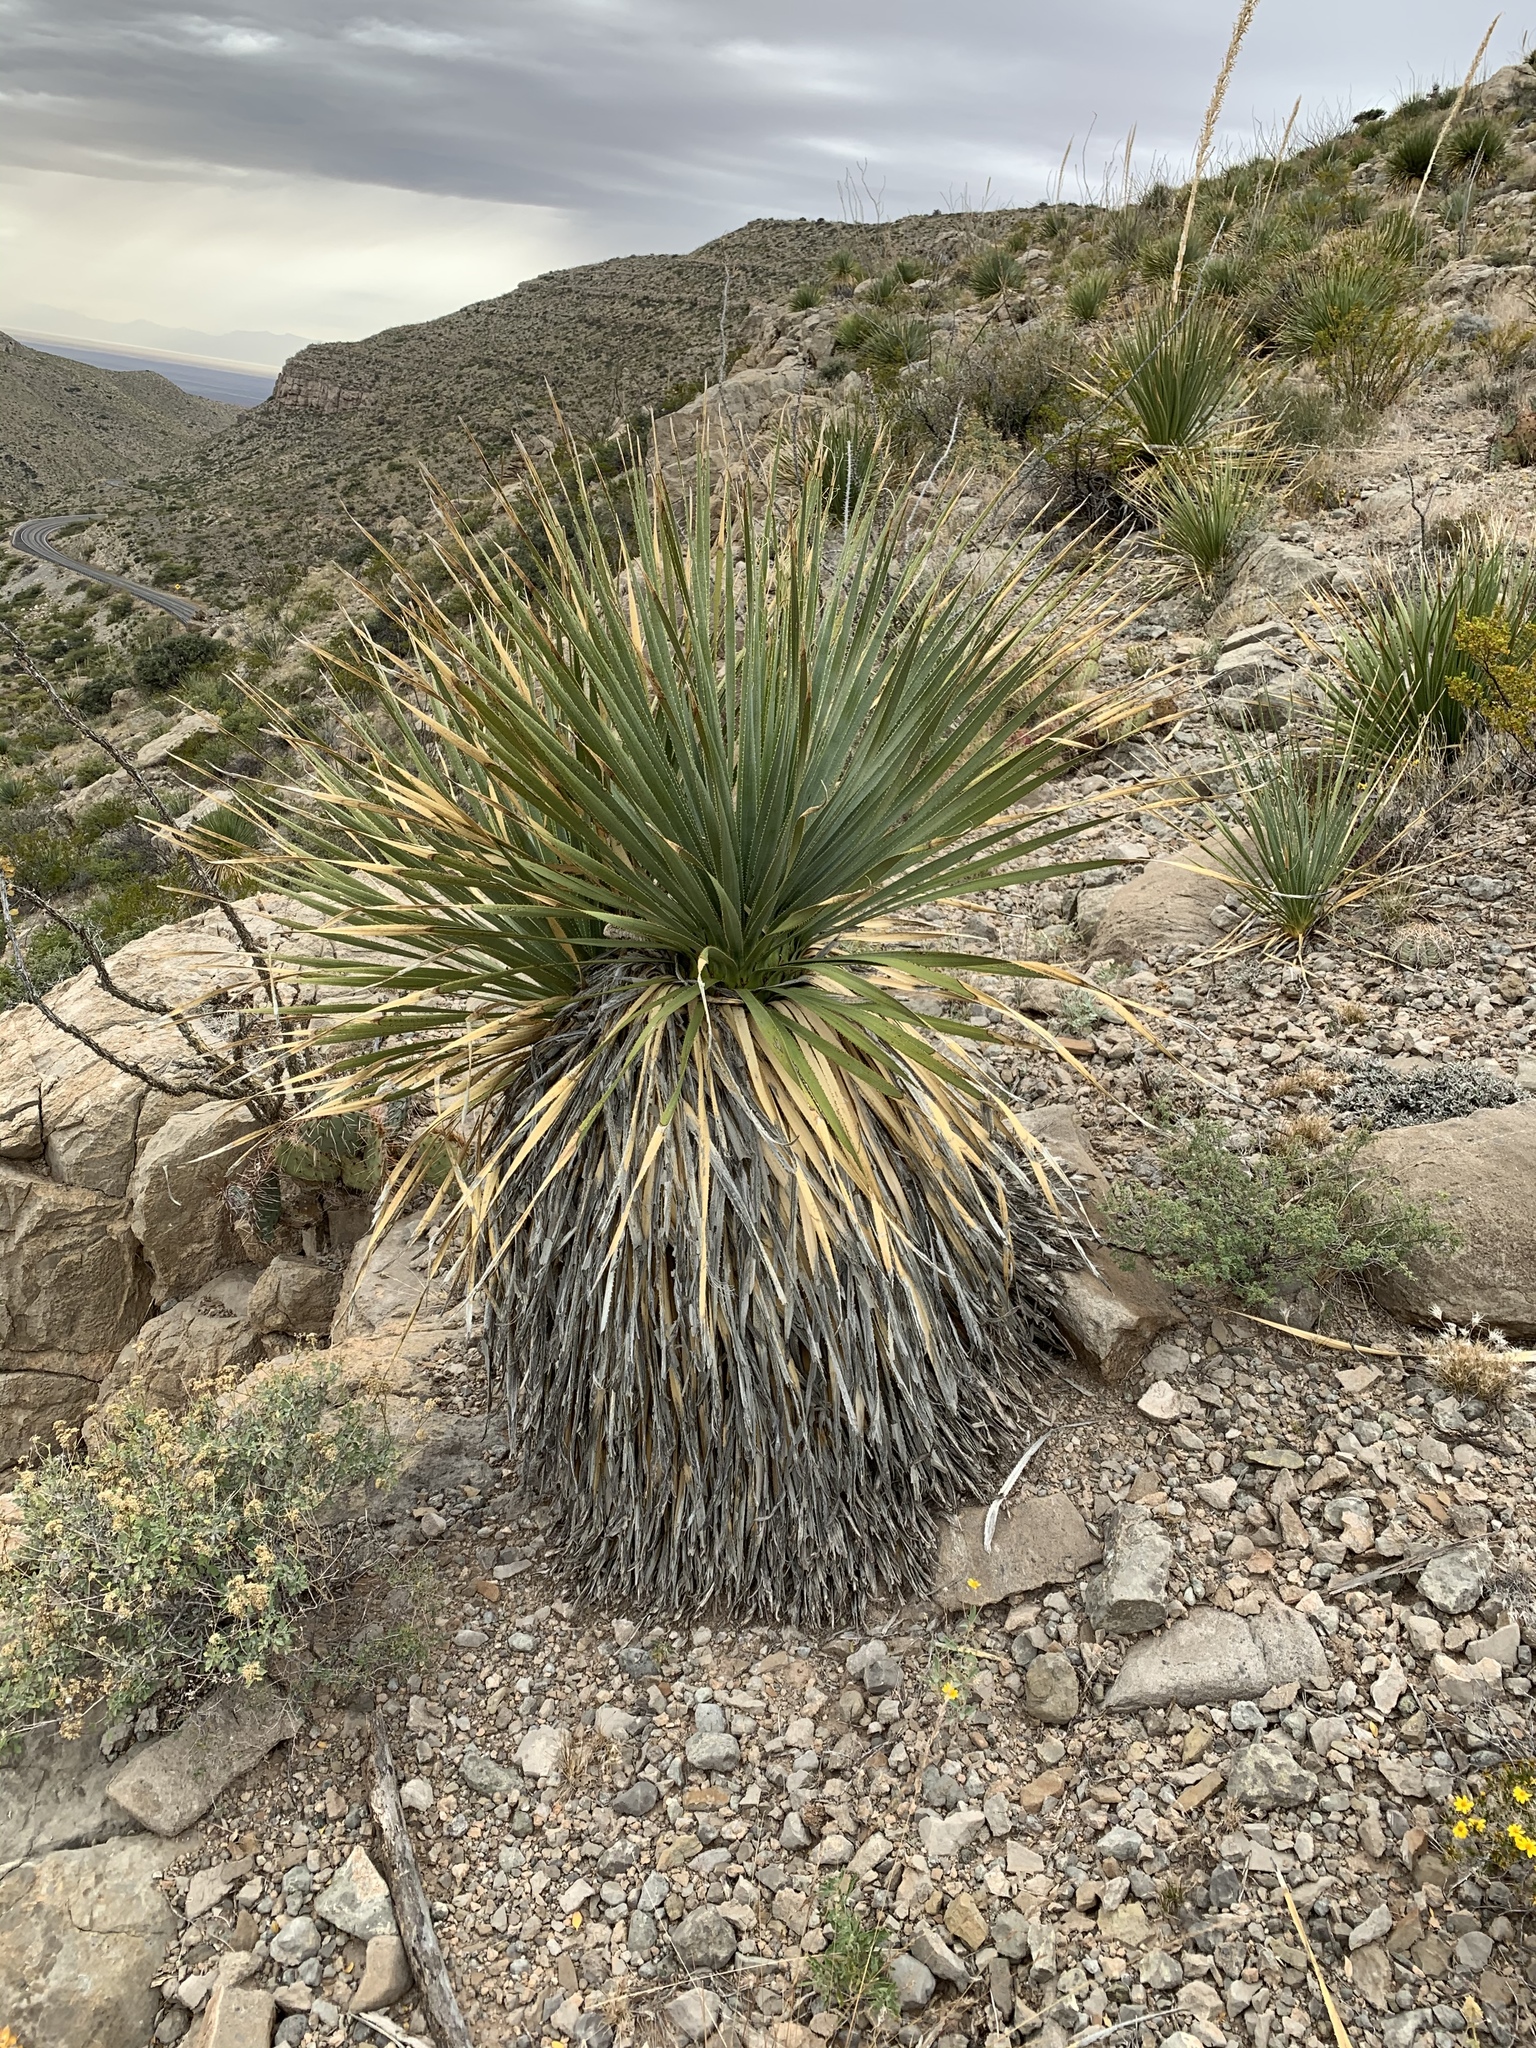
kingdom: Plantae
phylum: Tracheophyta
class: Liliopsida
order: Asparagales
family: Asparagaceae
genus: Dasylirion
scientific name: Dasylirion wheeleri
